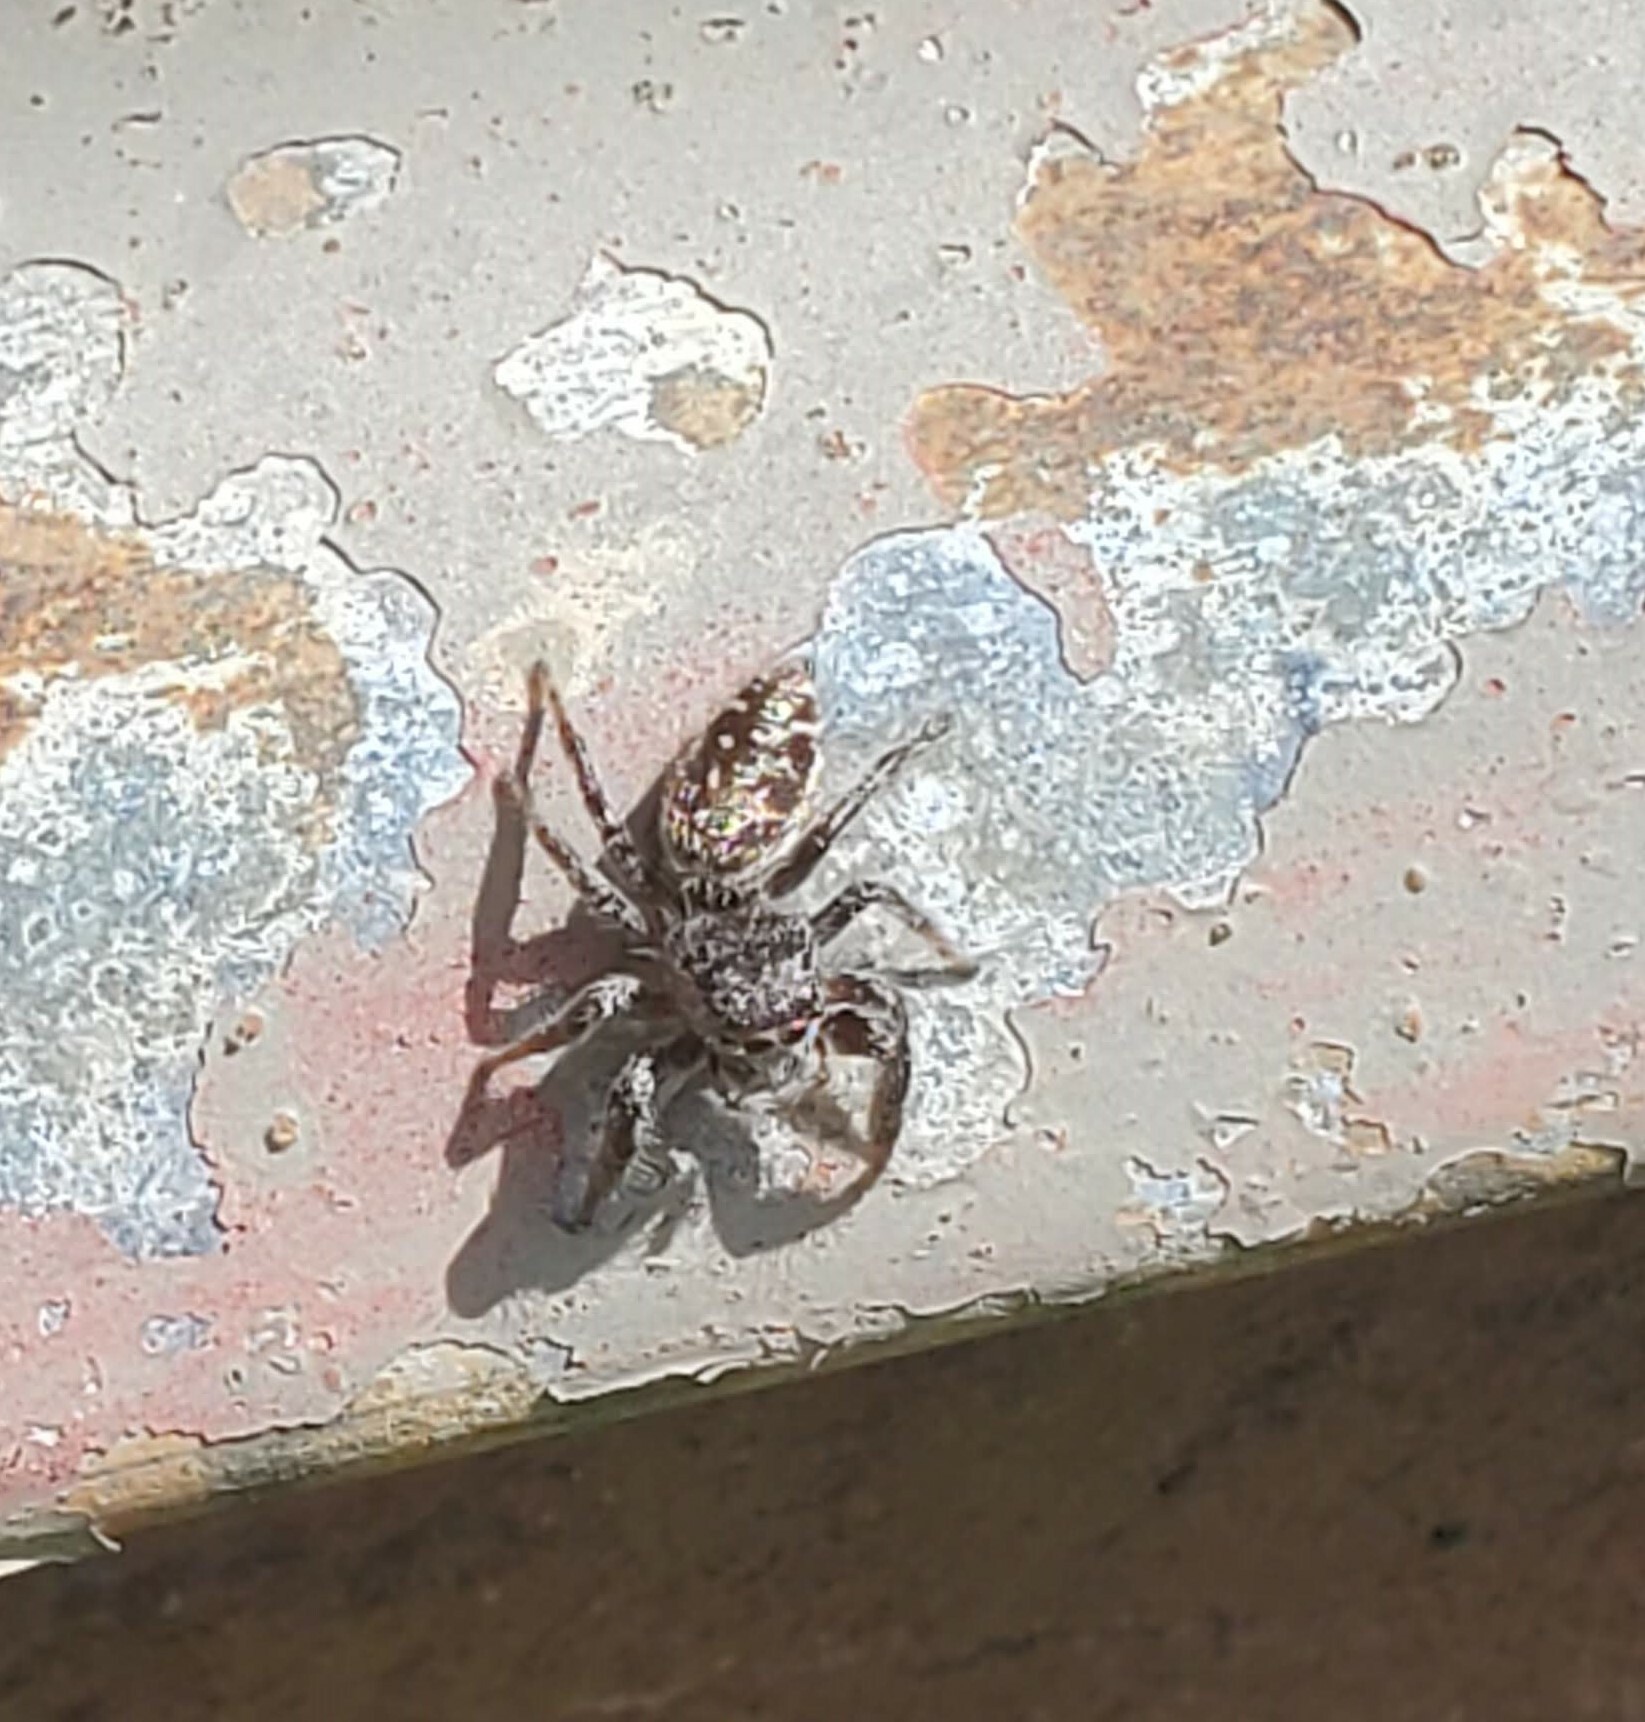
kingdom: Animalia
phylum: Arthropoda
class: Arachnida
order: Araneae
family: Salticidae
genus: Eris
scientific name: Eris militaris
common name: Bronze jumper
